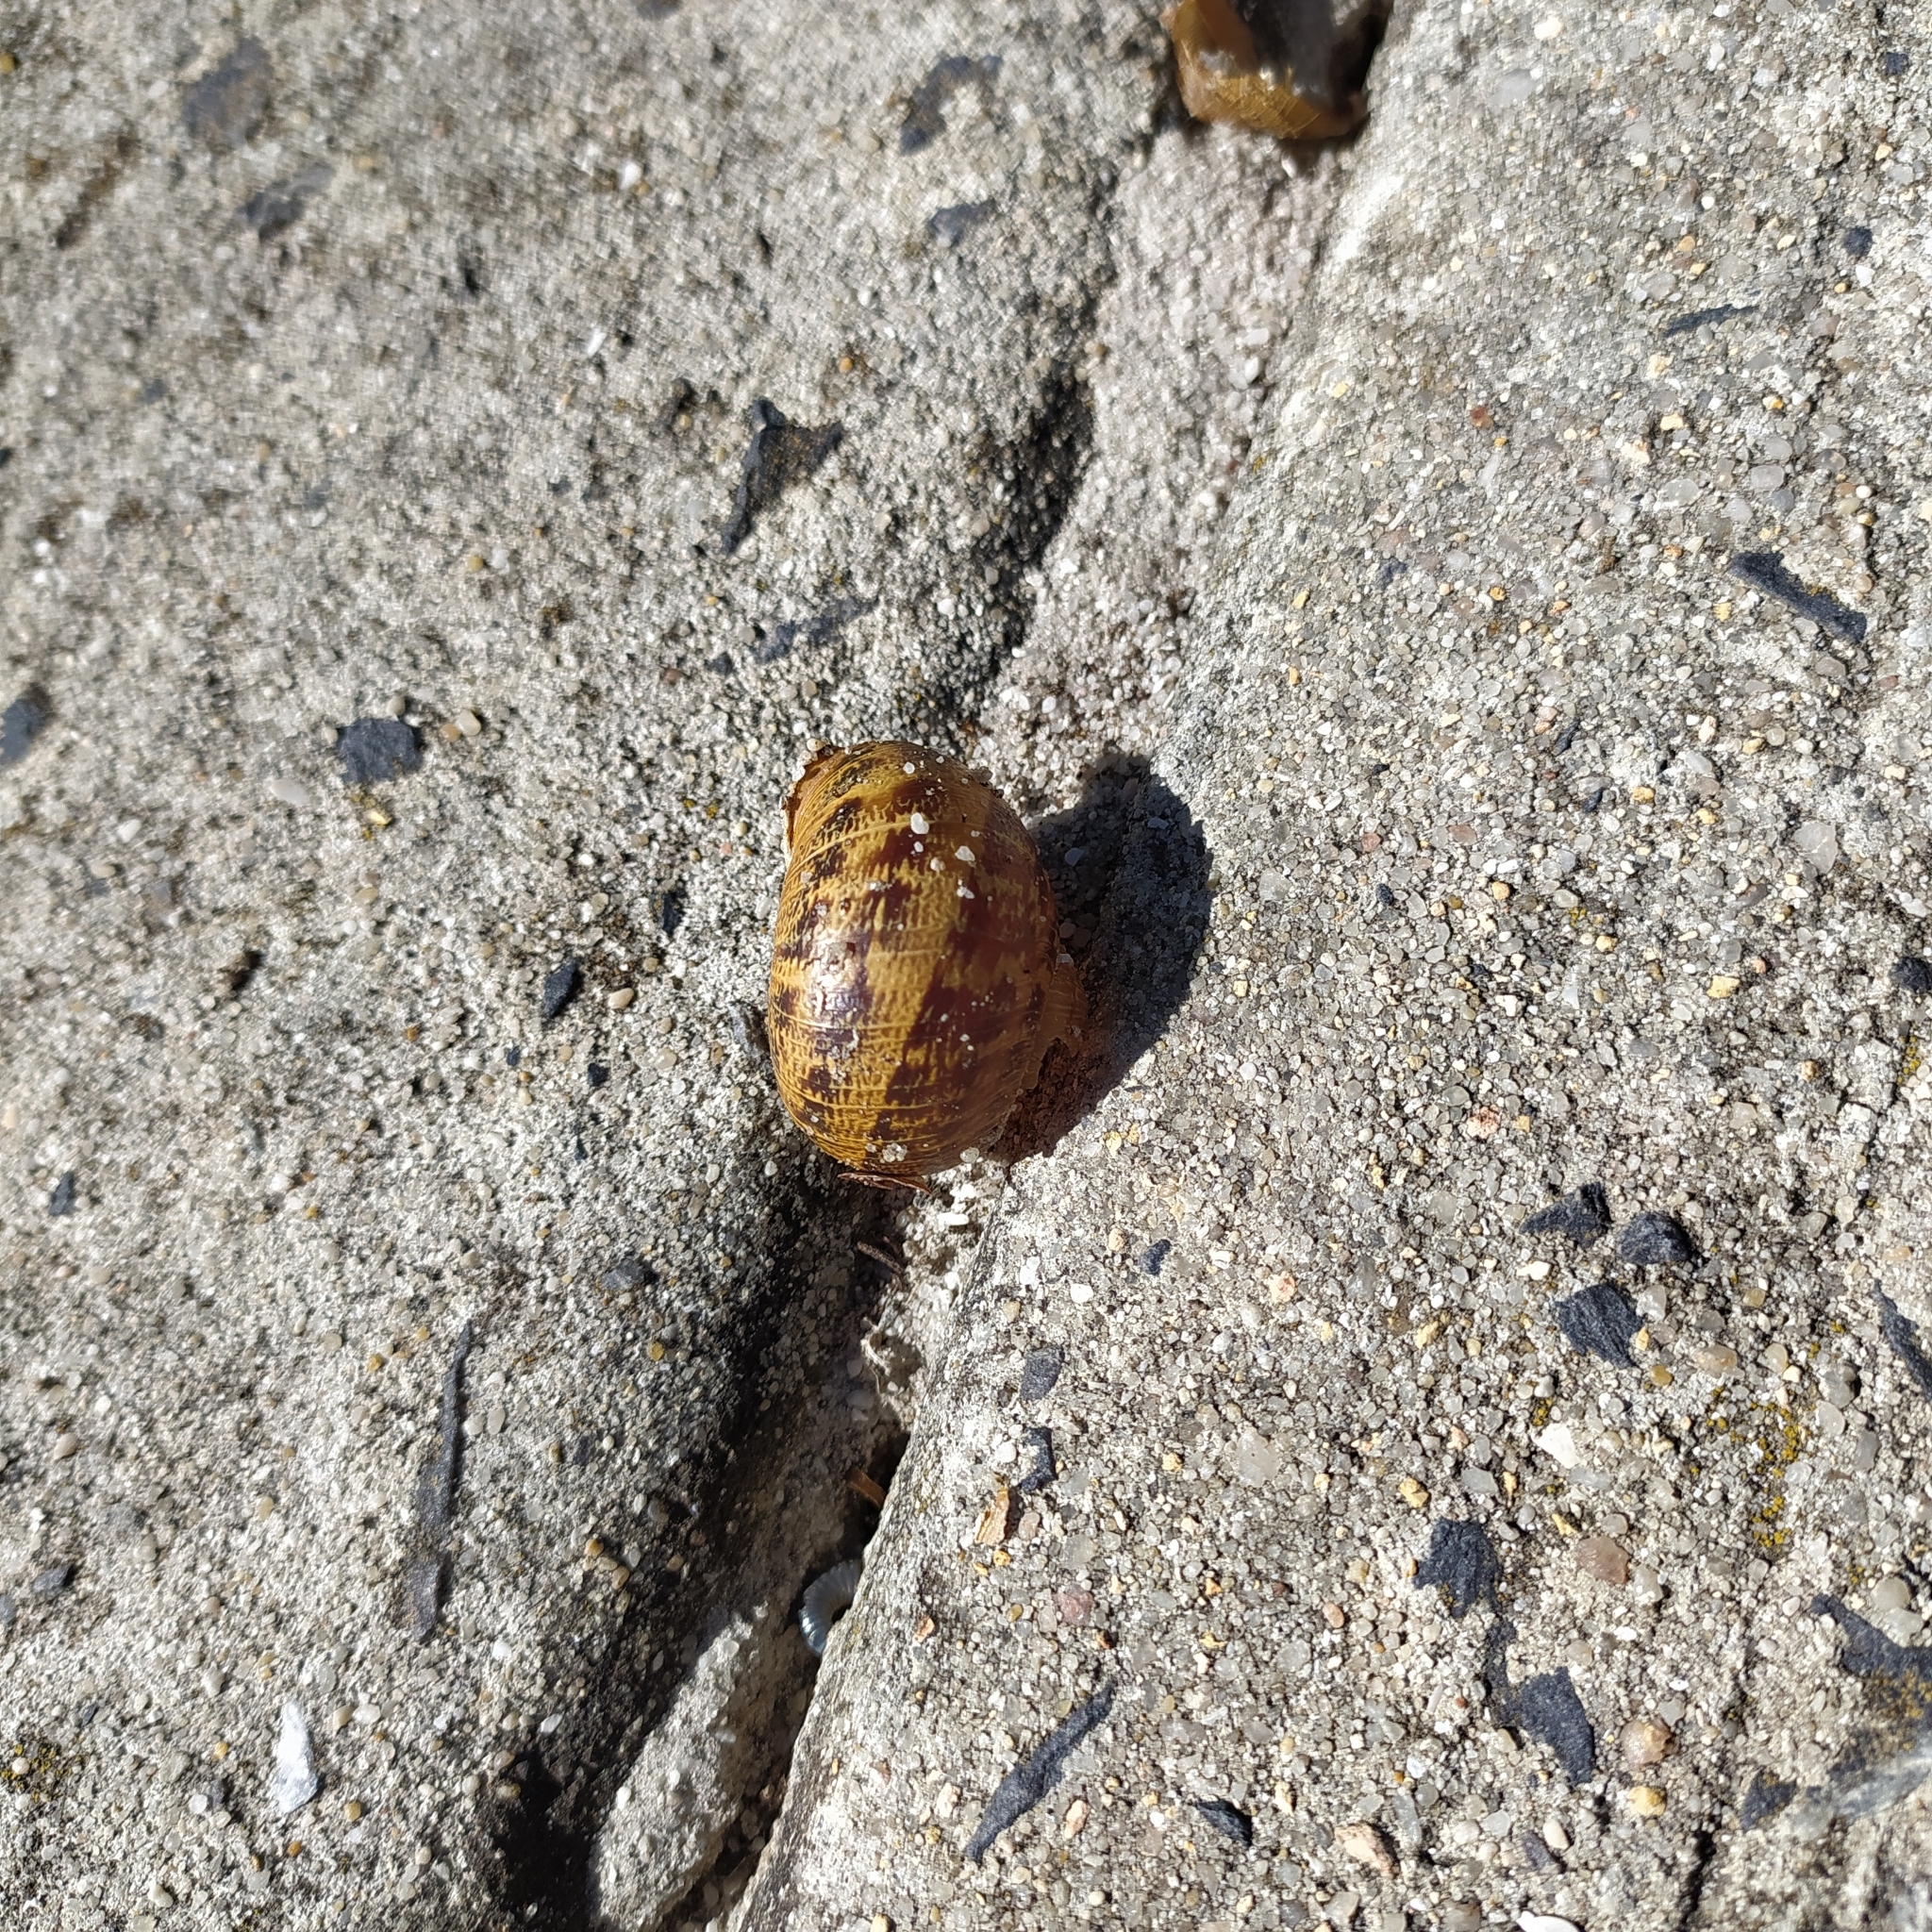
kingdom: Animalia
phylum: Mollusca
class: Gastropoda
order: Stylommatophora
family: Helicidae
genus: Cornu
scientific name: Cornu aspersum
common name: Brown garden snail
